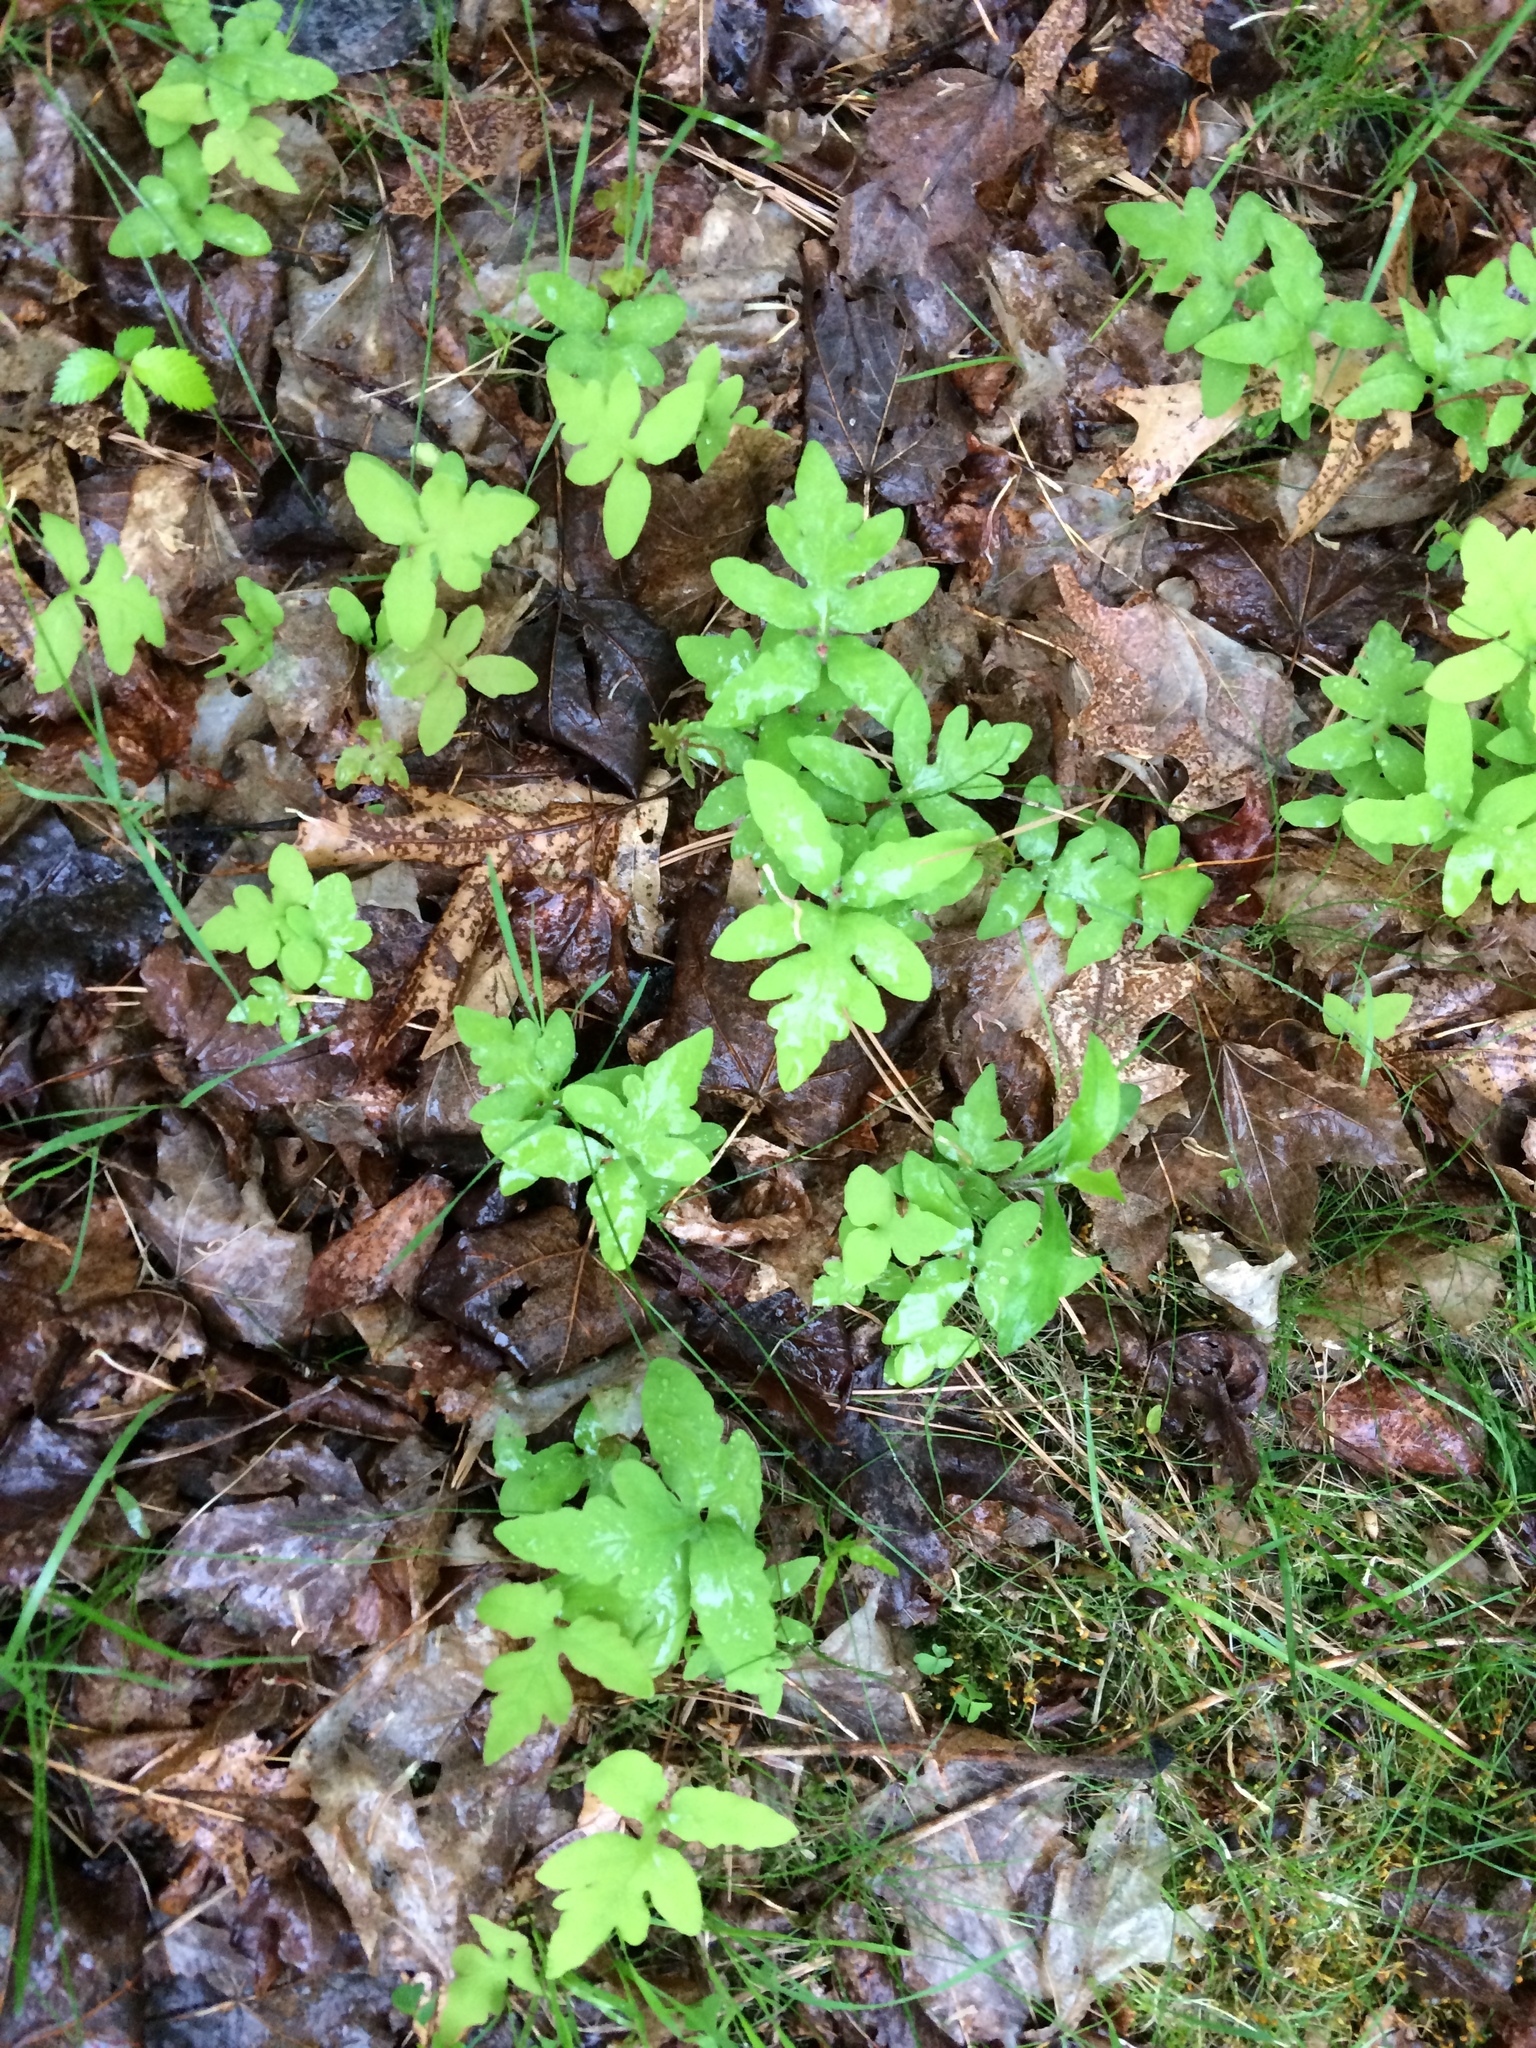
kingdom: Plantae
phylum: Tracheophyta
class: Polypodiopsida
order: Polypodiales
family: Onocleaceae
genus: Onoclea
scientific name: Onoclea sensibilis
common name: Sensitive fern
